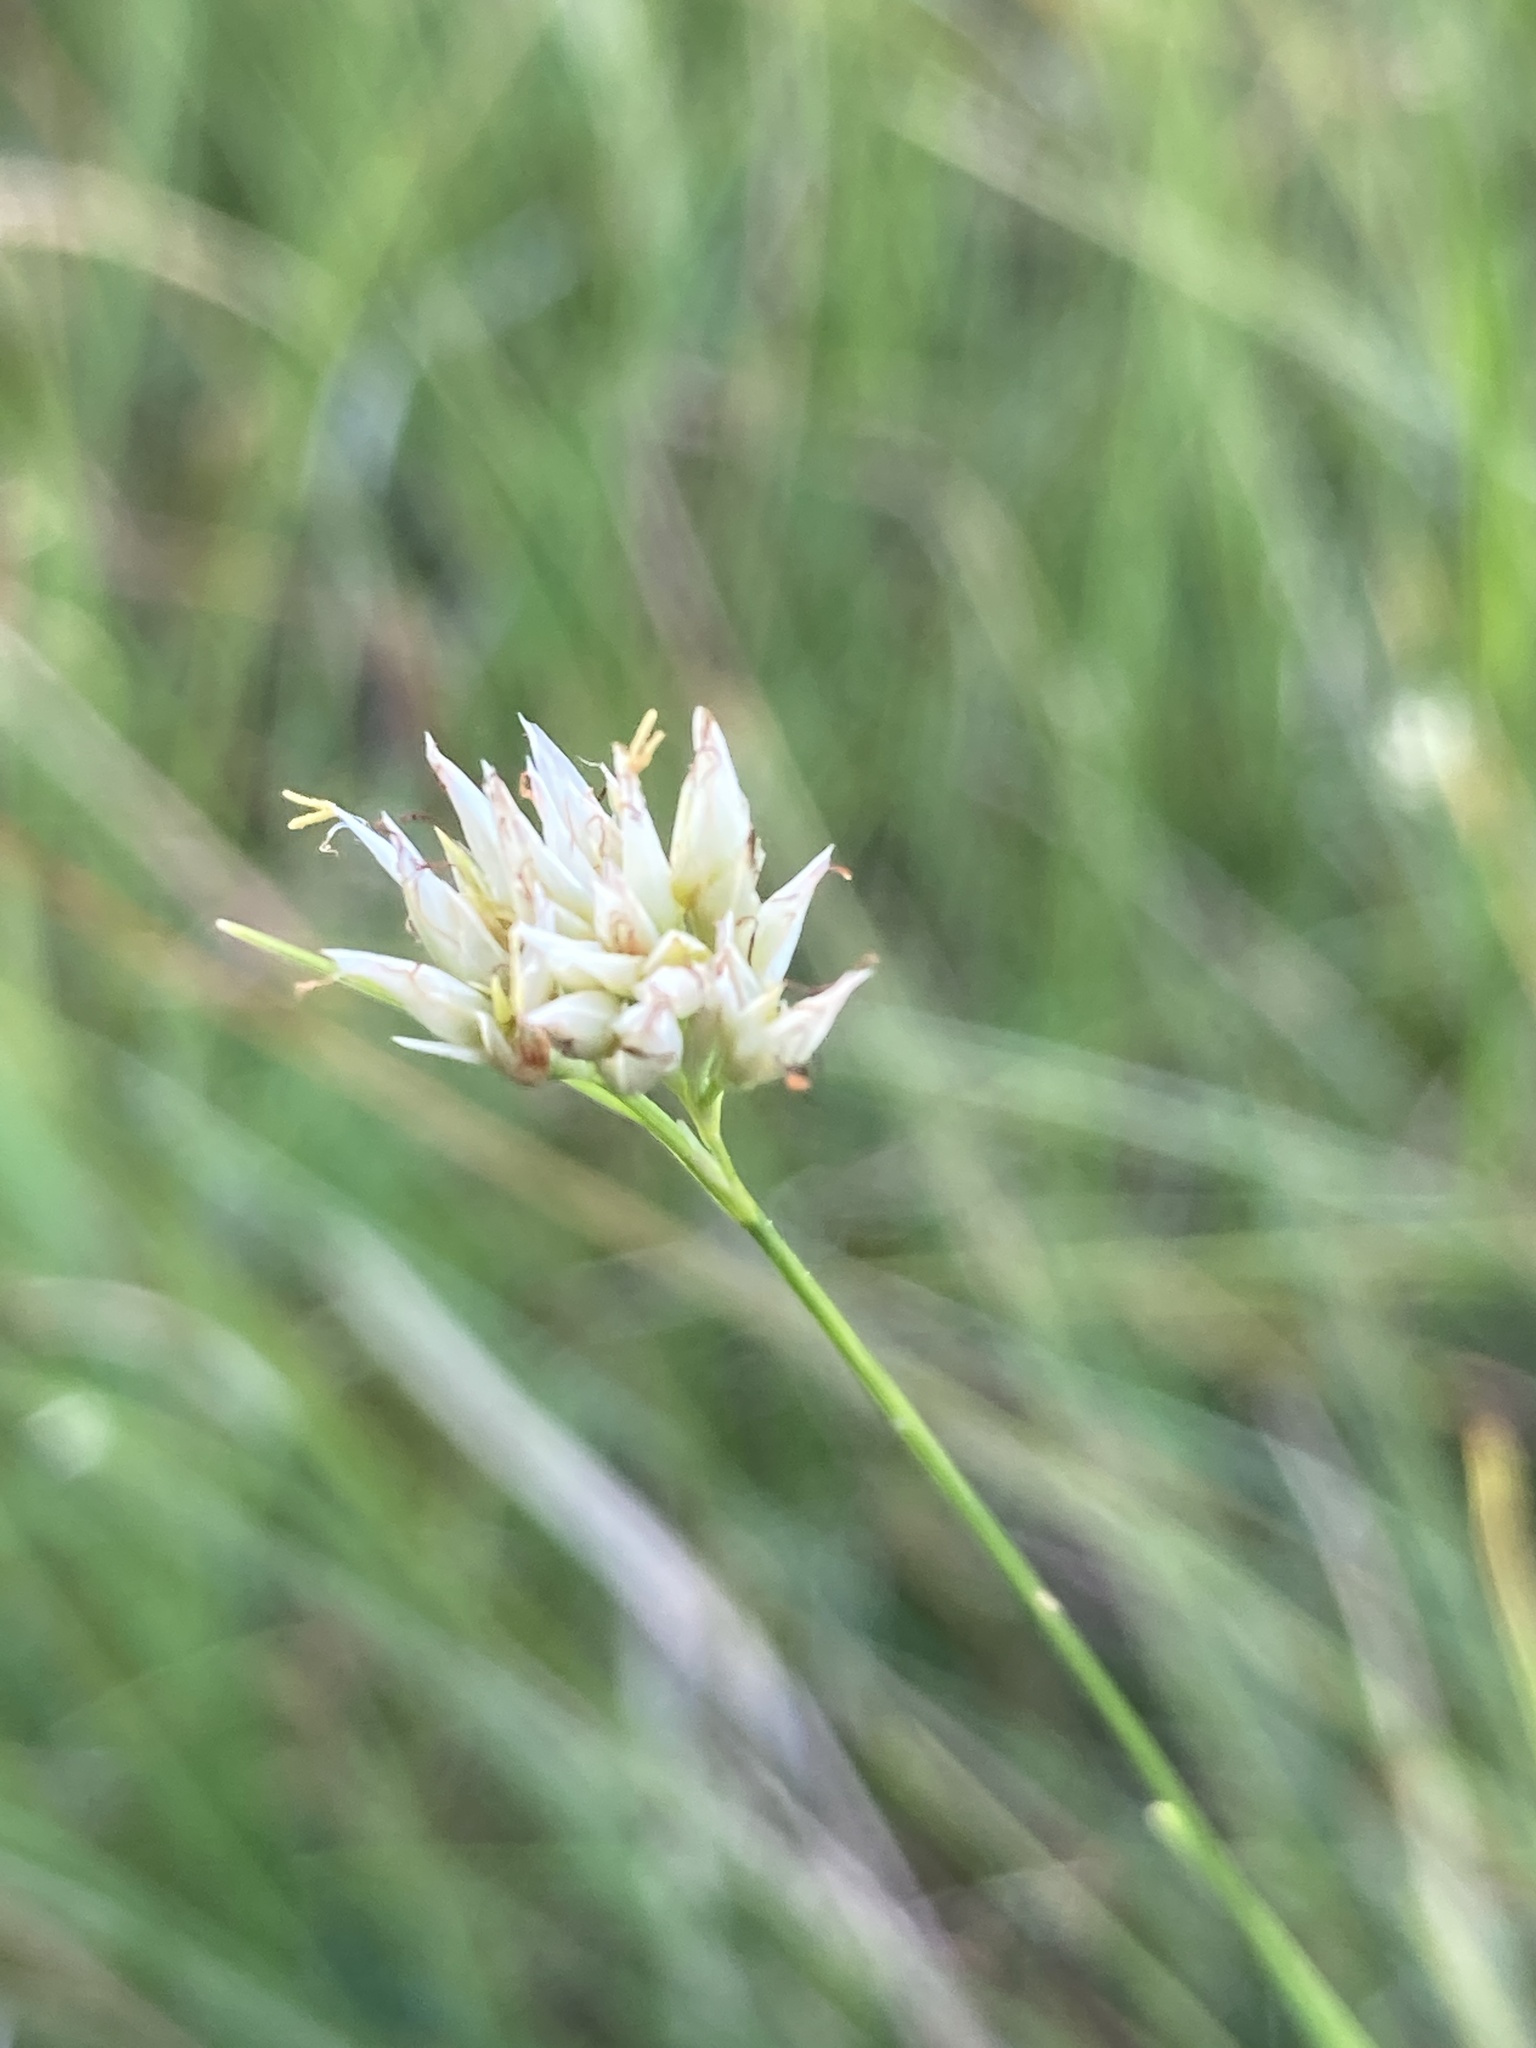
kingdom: Plantae
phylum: Tracheophyta
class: Liliopsida
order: Poales
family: Cyperaceae
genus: Rhynchospora
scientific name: Rhynchospora alba
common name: White beak-sedge
